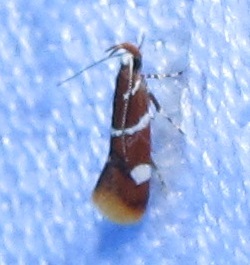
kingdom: Animalia
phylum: Arthropoda
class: Insecta
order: Lepidoptera
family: Oecophoridae
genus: Promalactis
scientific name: Promalactis suzukiella
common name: Moth
